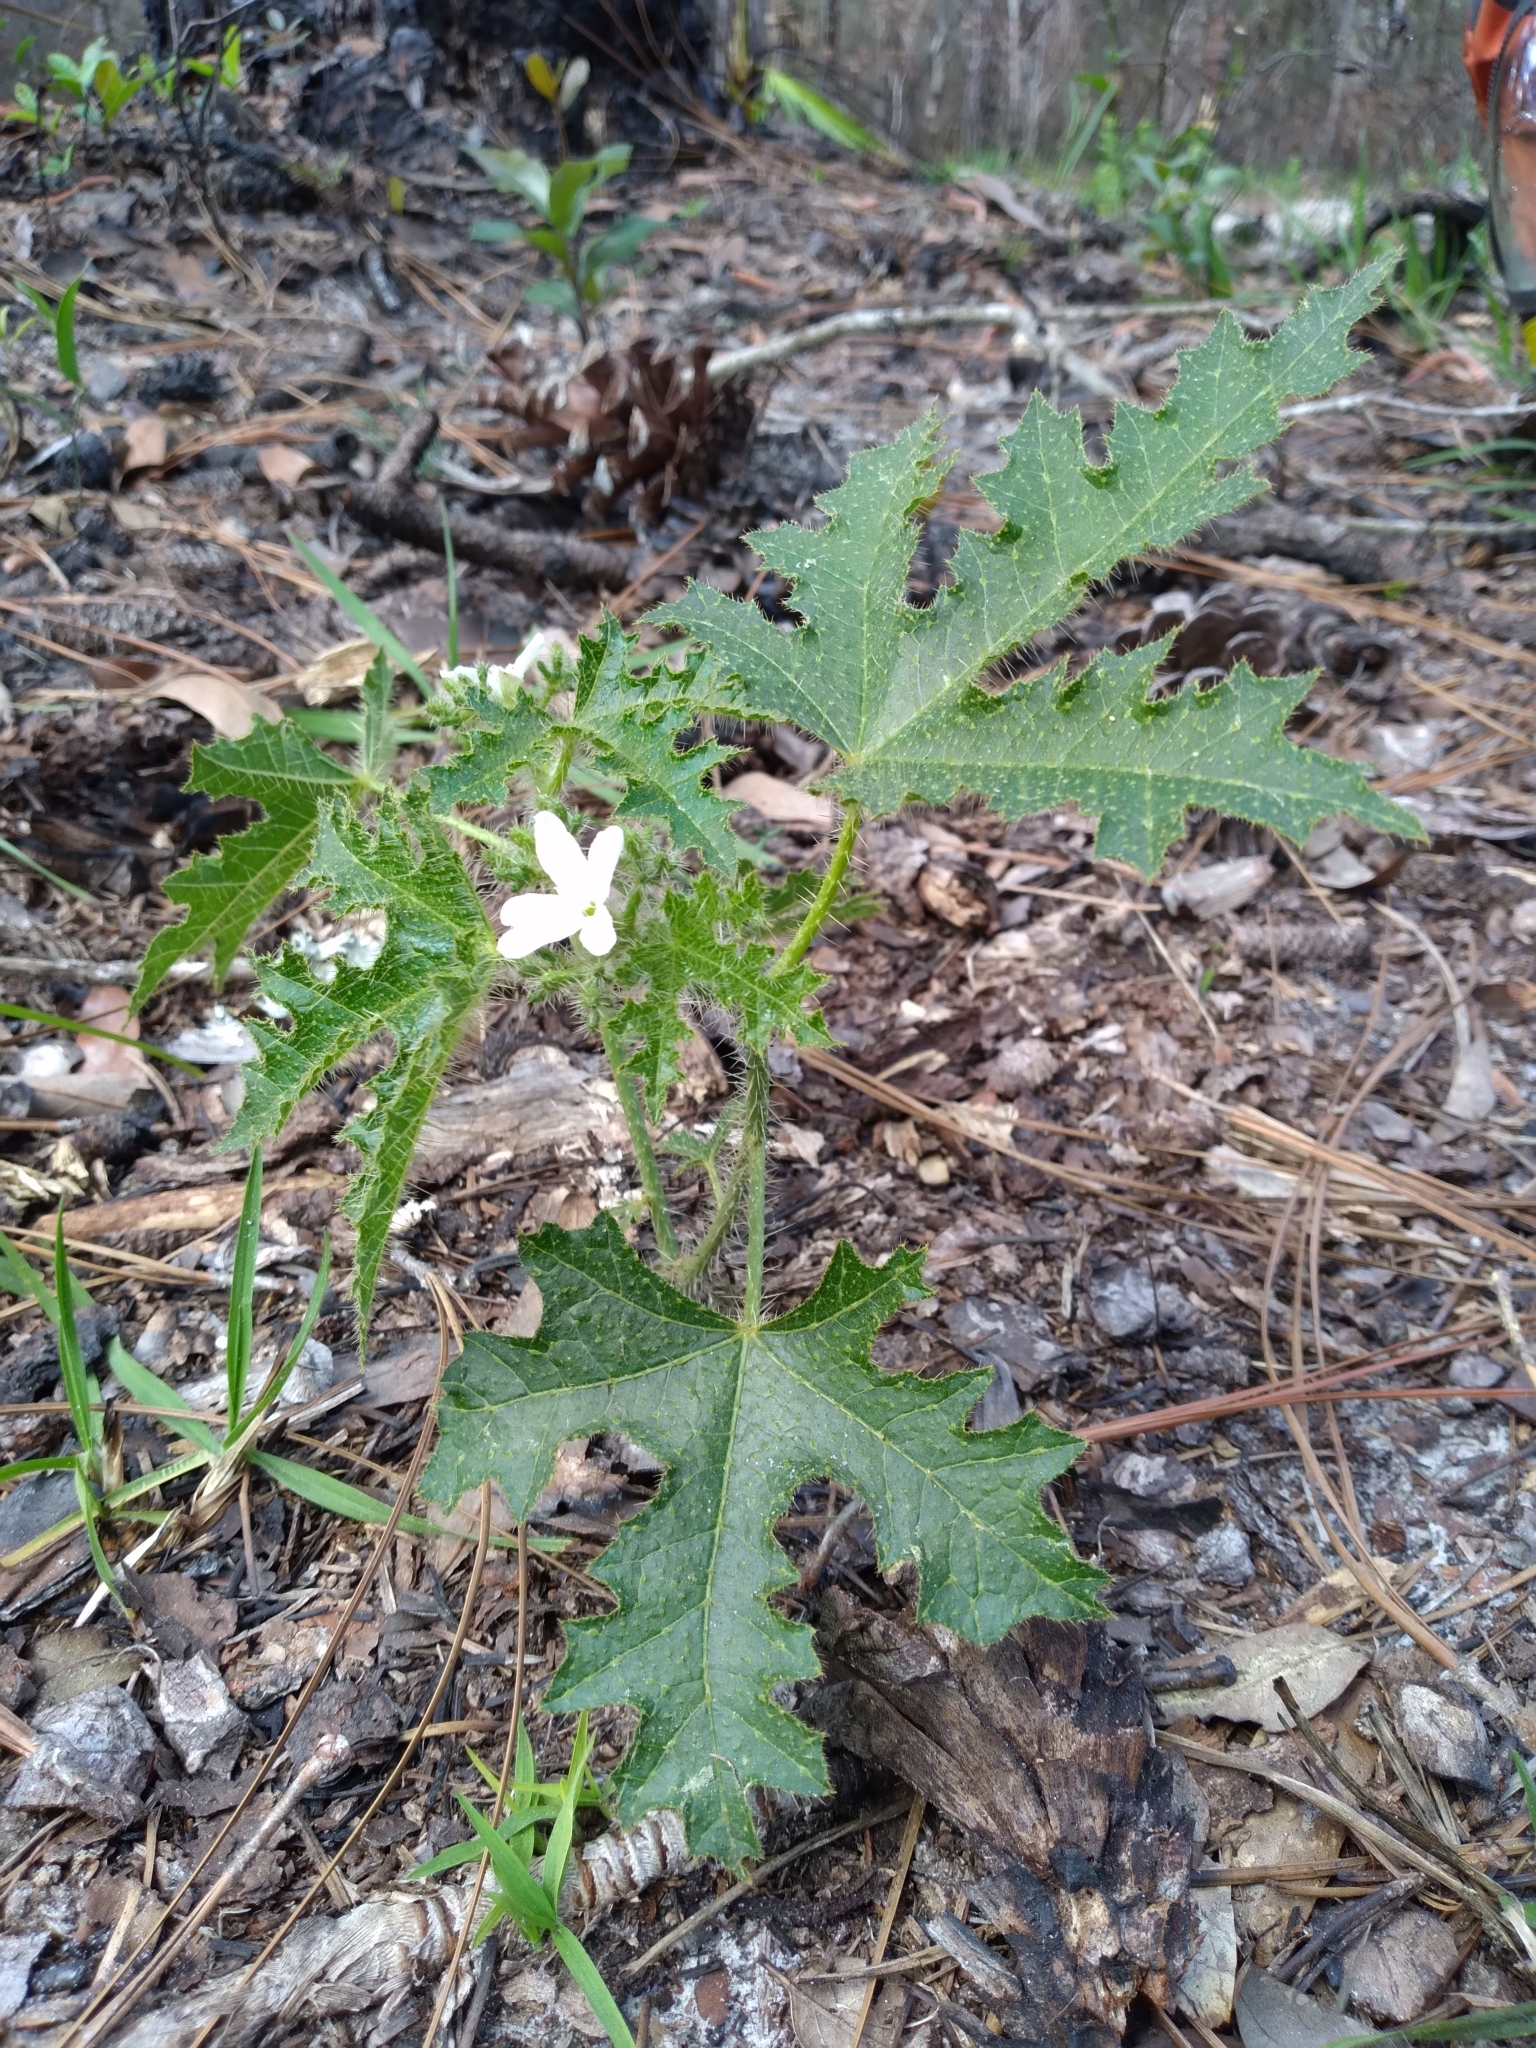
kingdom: Plantae
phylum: Tracheophyta
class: Magnoliopsida
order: Malpighiales
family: Euphorbiaceae
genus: Cnidoscolus
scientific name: Cnidoscolus stimulosus
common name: Bull-nettle
